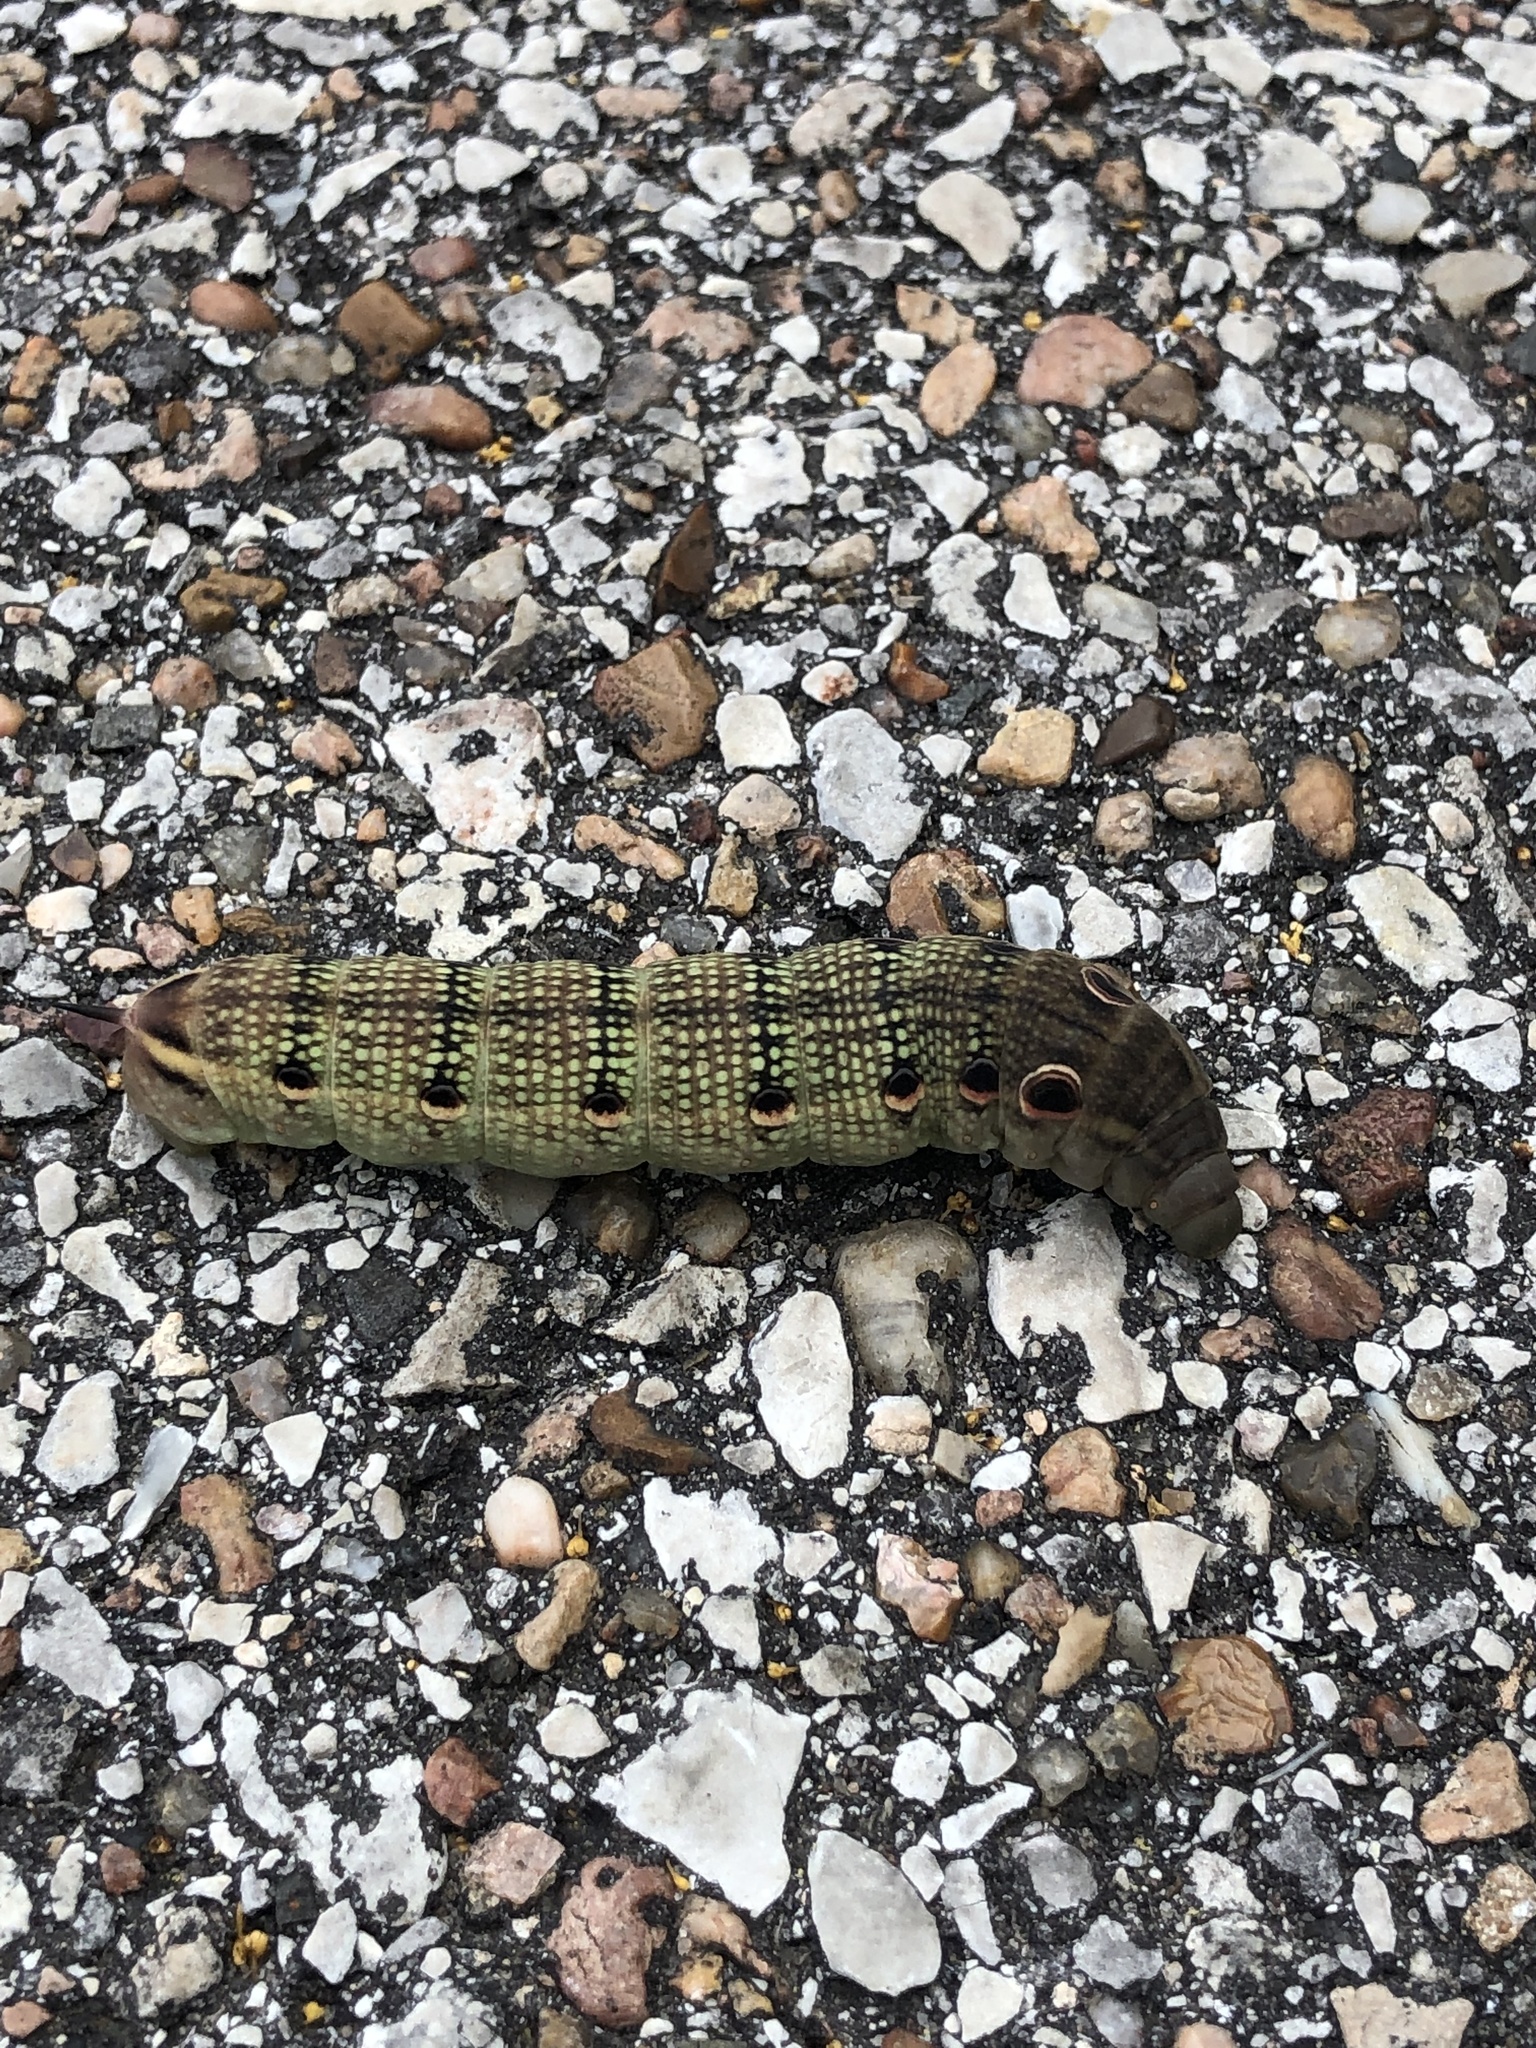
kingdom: Animalia
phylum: Arthropoda
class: Insecta
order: Lepidoptera
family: Sphingidae
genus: Xylophanes
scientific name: Xylophanes tersa
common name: Tersa sphinx
